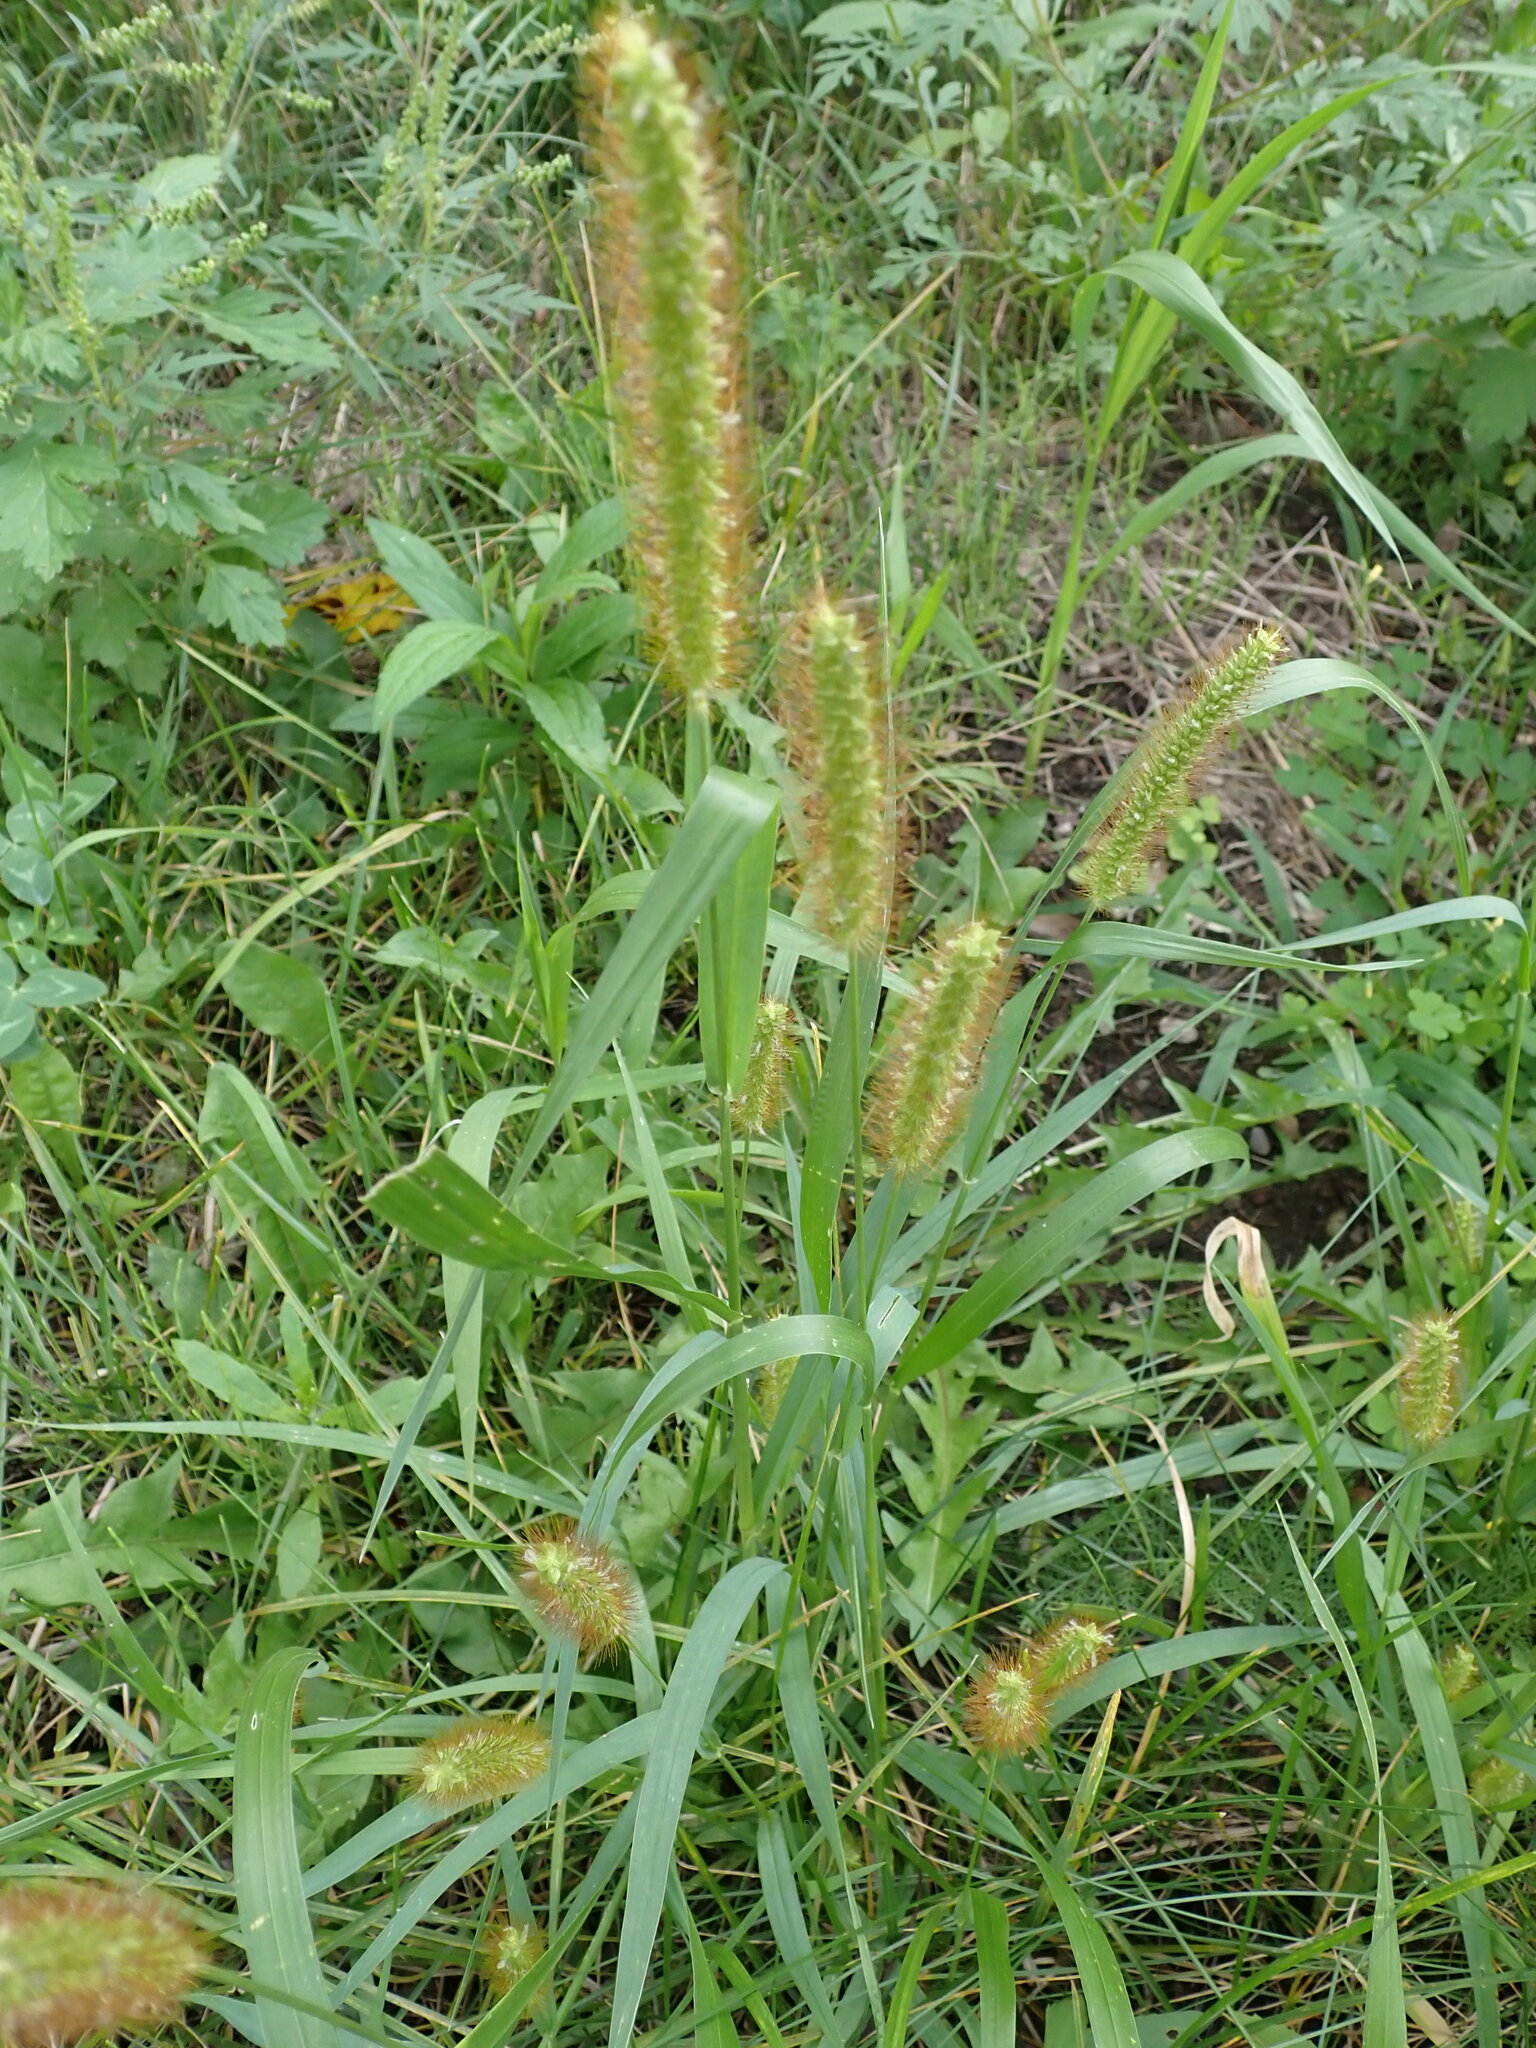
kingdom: Plantae
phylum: Tracheophyta
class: Liliopsida
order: Poales
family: Poaceae
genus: Setaria
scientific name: Setaria pumila
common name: Yellow bristle-grass
